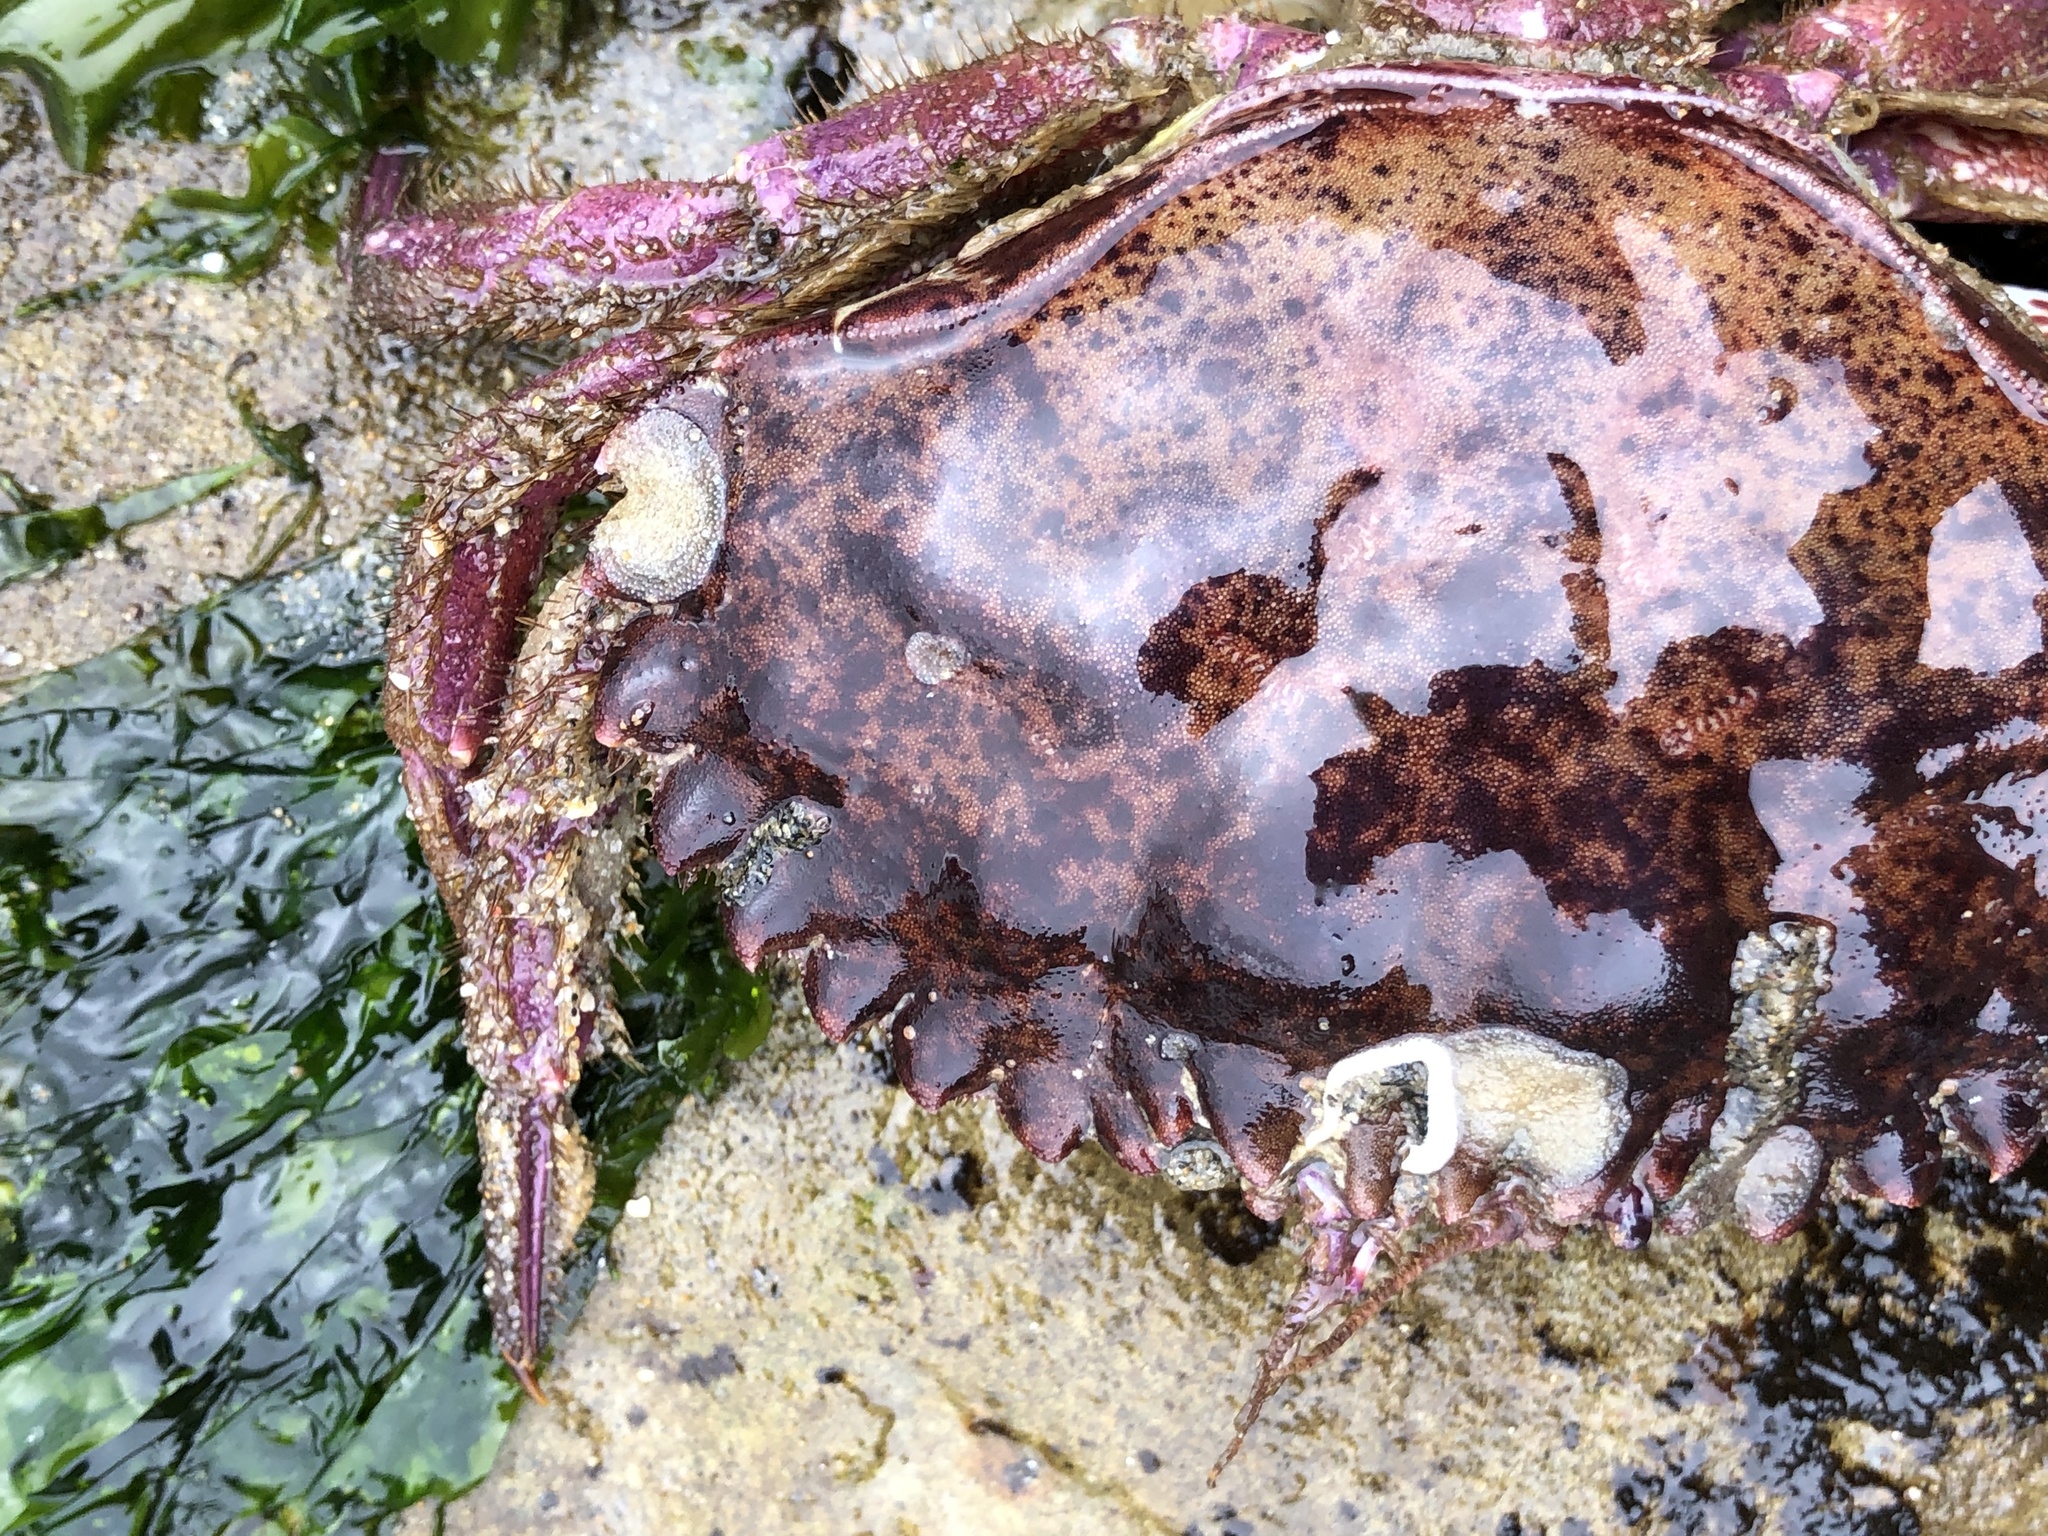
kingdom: Animalia
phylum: Arthropoda
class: Malacostraca
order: Decapoda
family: Cancridae
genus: Romaleon
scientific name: Romaleon antennarium
